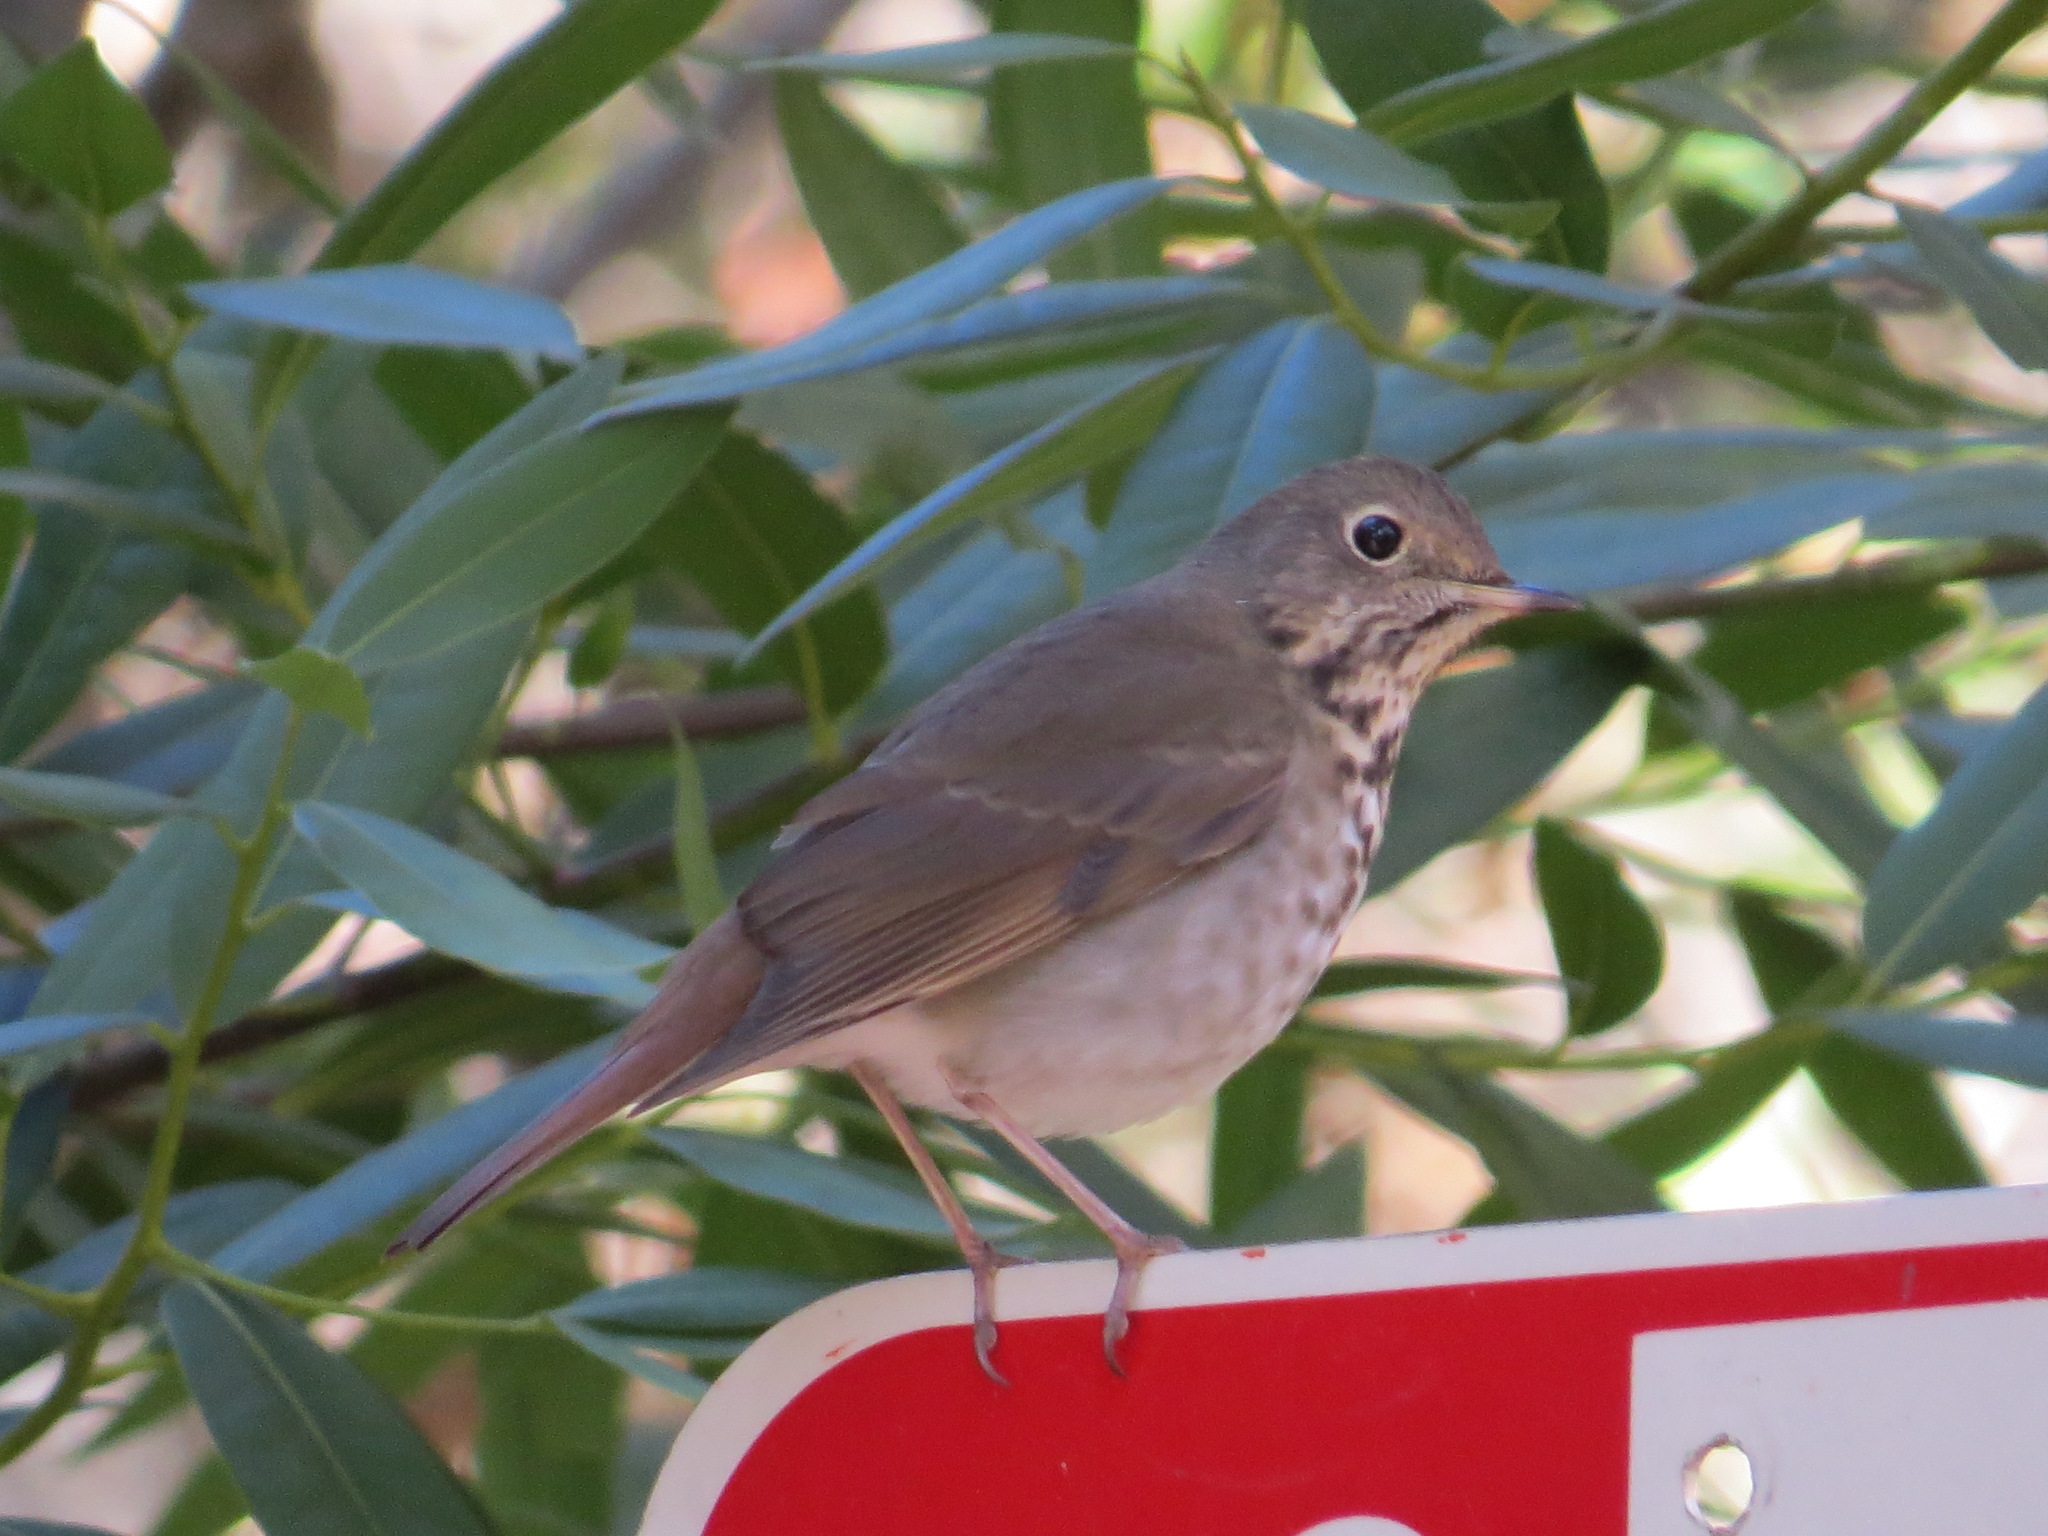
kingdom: Animalia
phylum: Chordata
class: Aves
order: Passeriformes
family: Turdidae
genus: Catharus
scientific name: Catharus guttatus
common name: Hermit thrush
